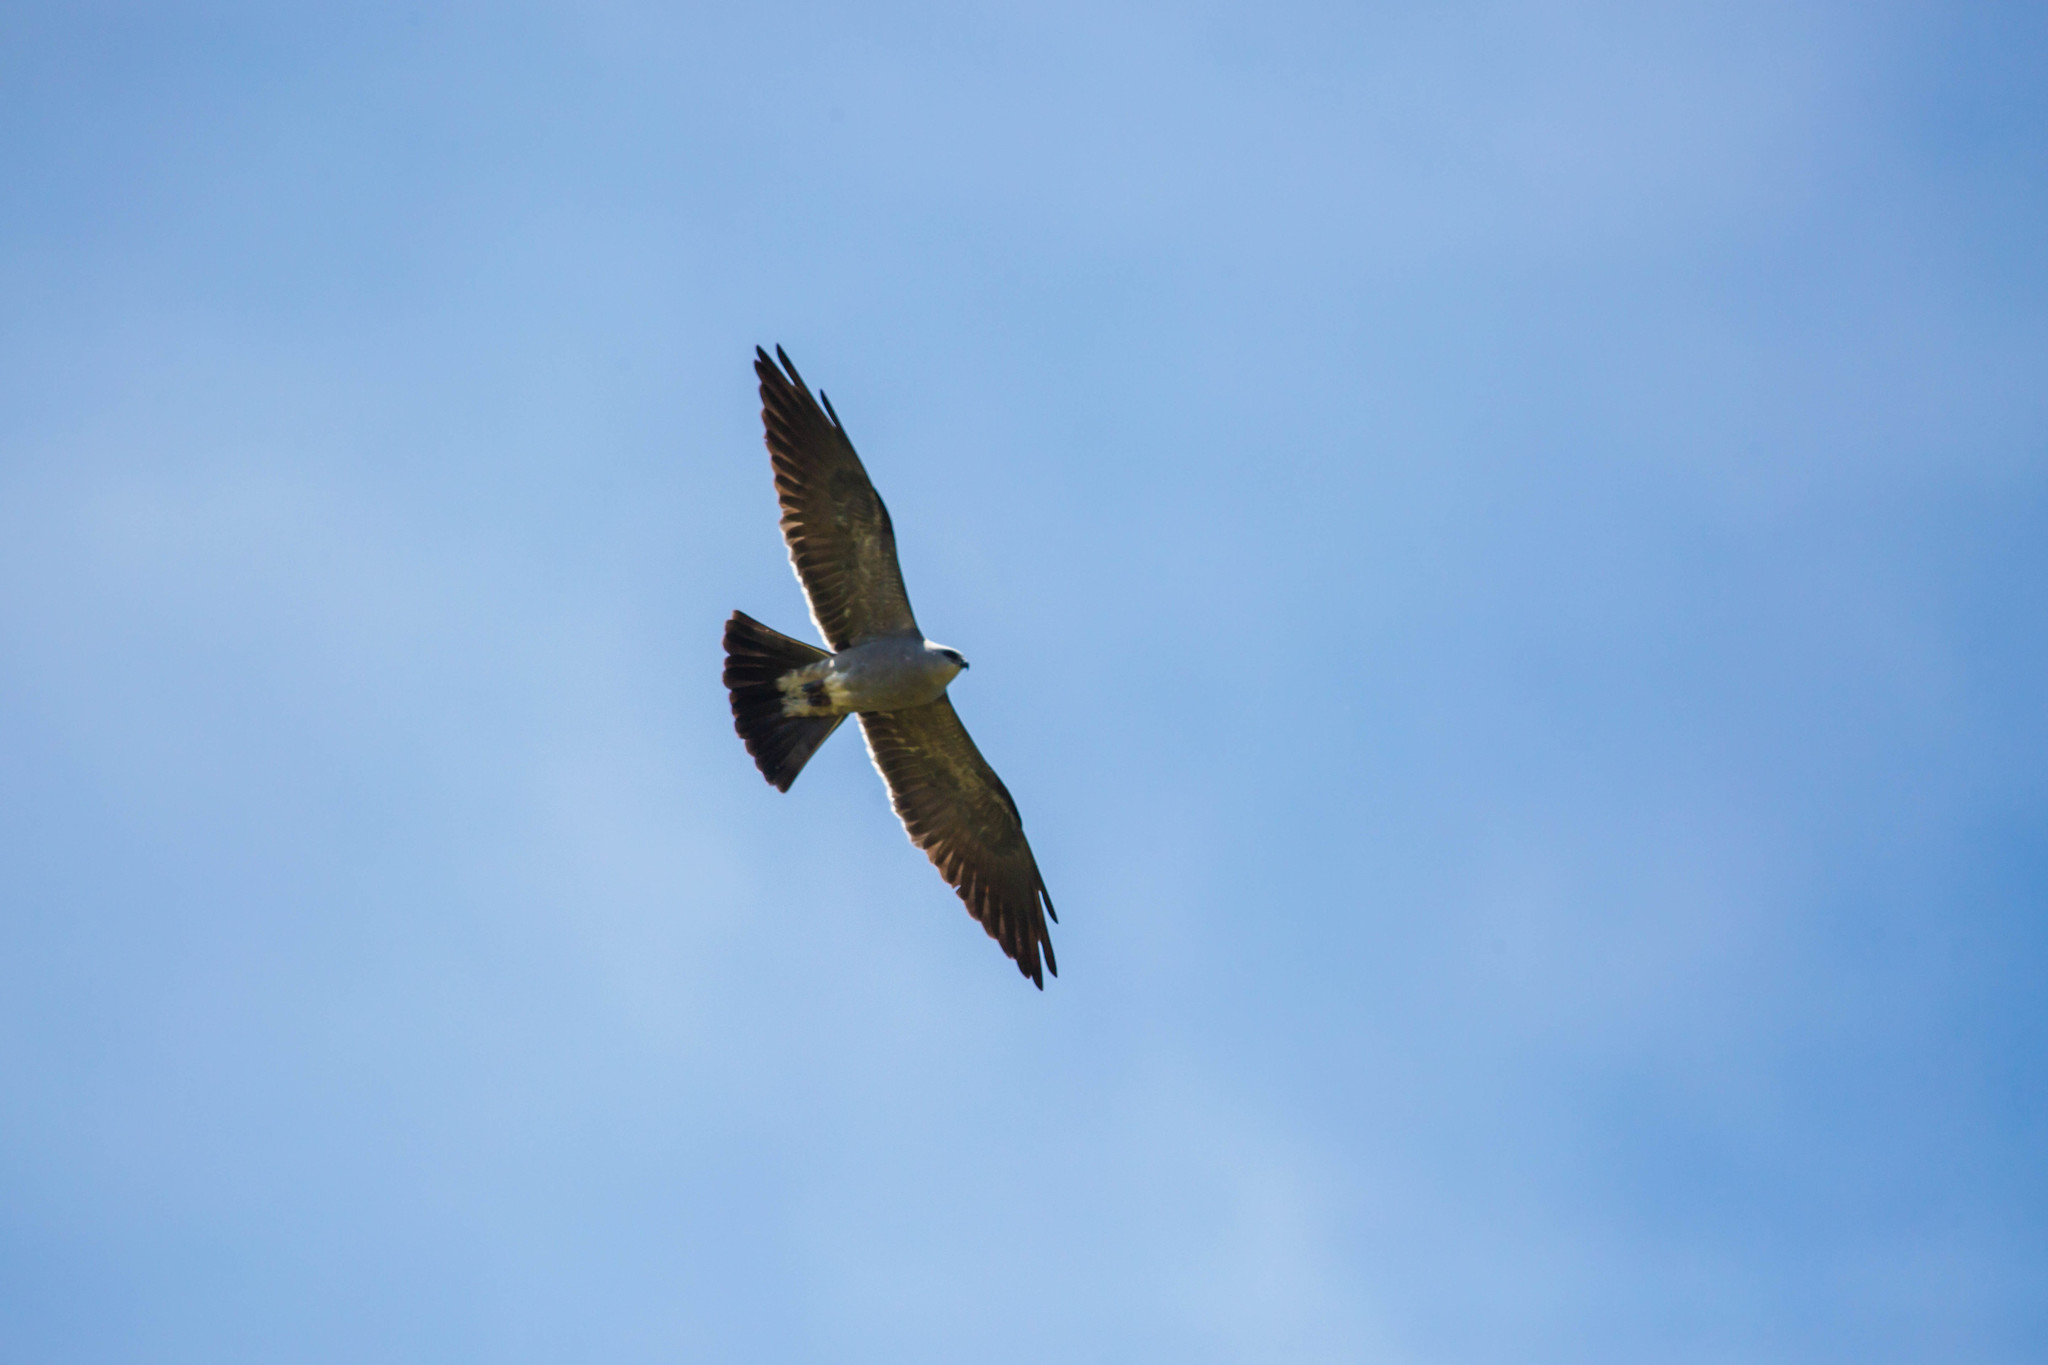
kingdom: Animalia
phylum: Chordata
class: Aves
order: Accipitriformes
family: Accipitridae
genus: Ictinia
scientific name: Ictinia mississippiensis
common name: Mississippi kite
